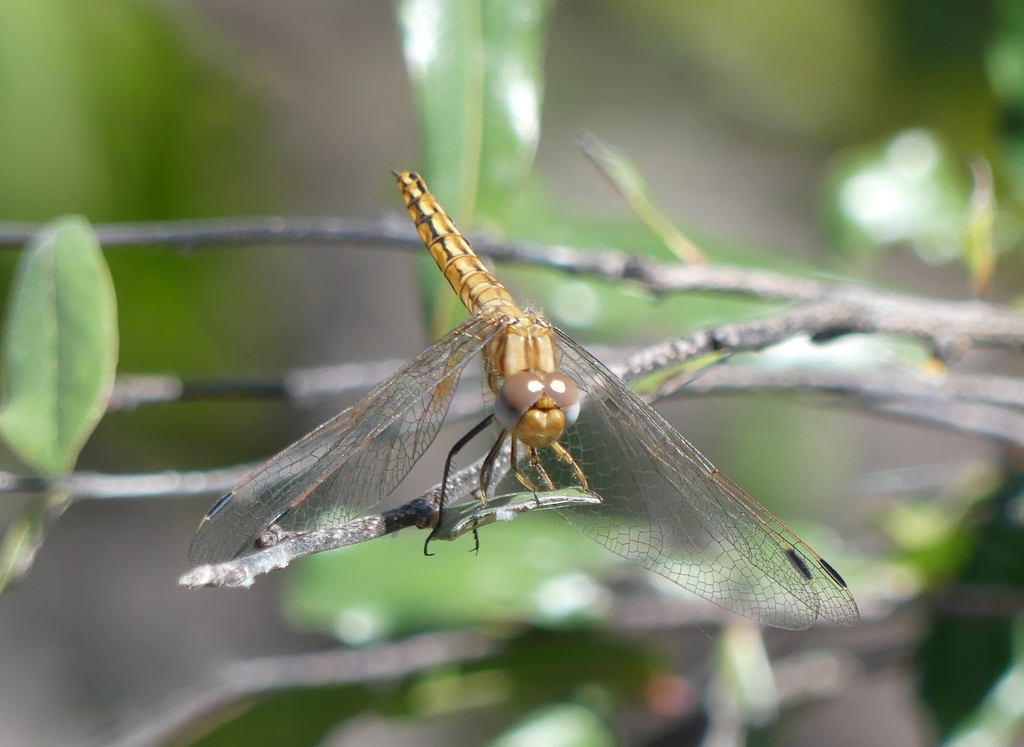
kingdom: Animalia
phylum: Arthropoda
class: Insecta
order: Odonata
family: Libellulidae
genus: Trithemis
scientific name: Trithemis kirbyi
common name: Kirby's dropwing
